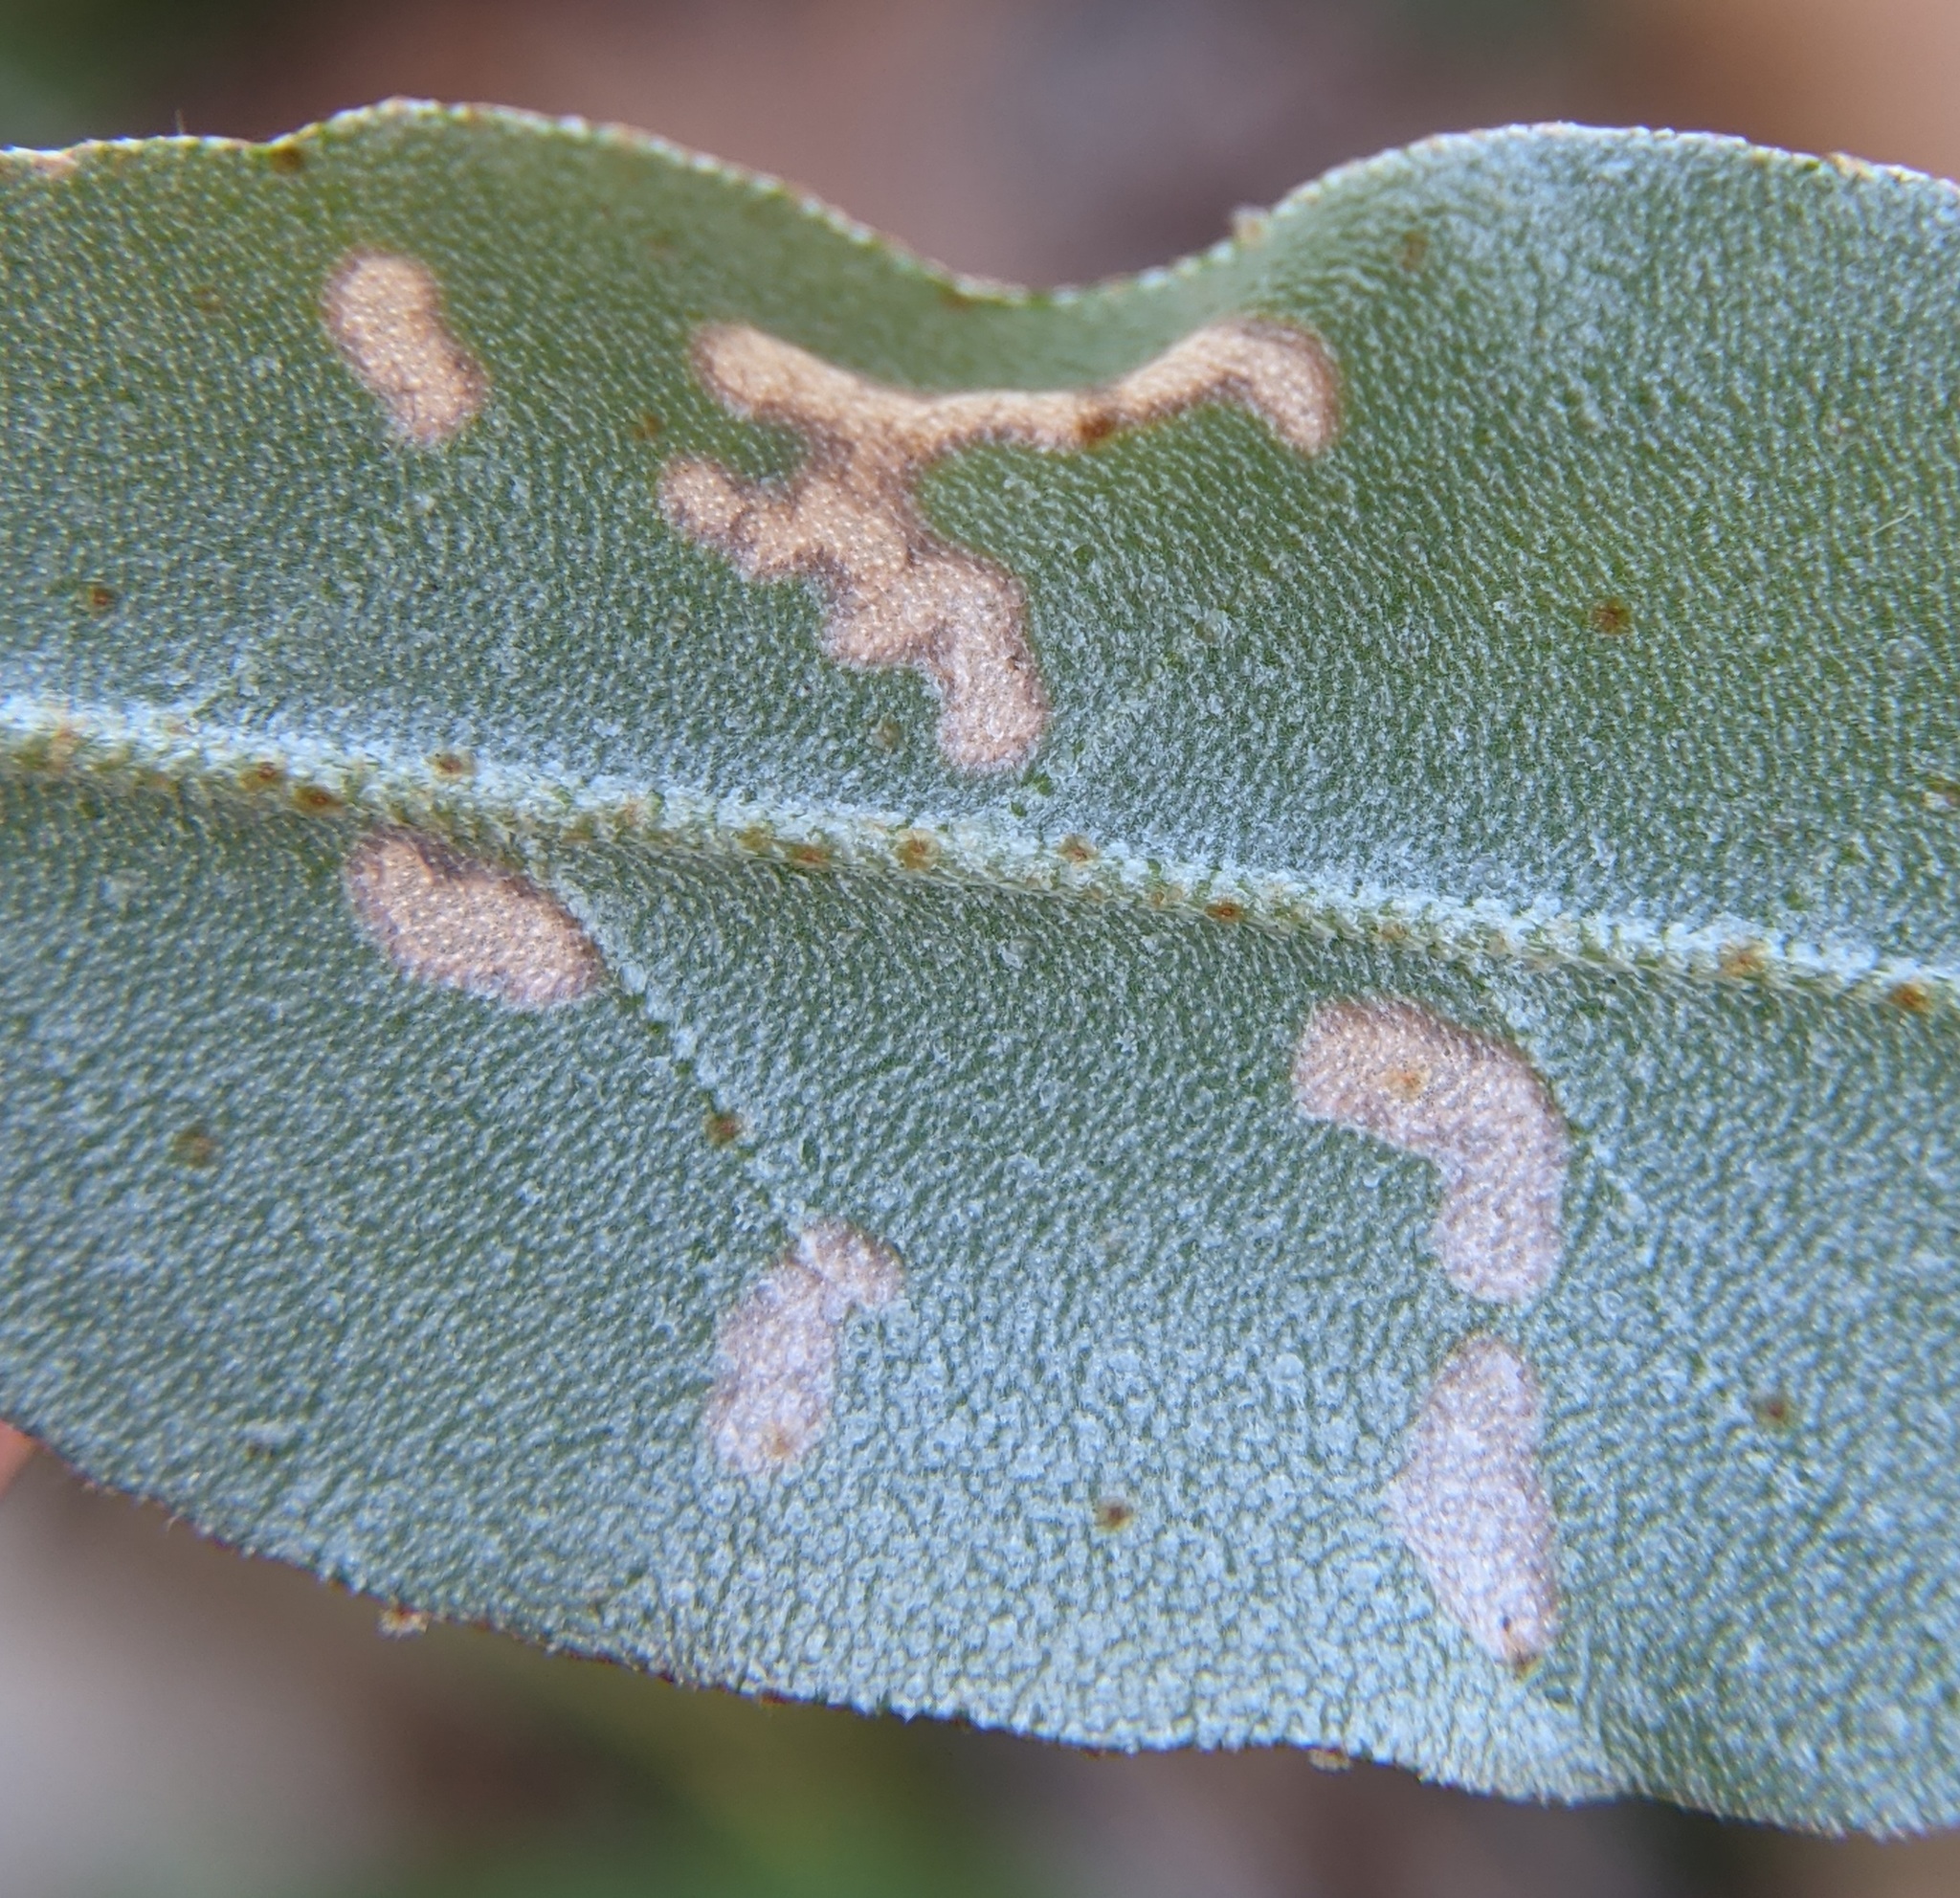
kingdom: Plantae
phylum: Tracheophyta
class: Magnoliopsida
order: Rosales
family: Elaeagnaceae
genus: Elaeagnus
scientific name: Elaeagnus umbellata
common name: Autumn olive
